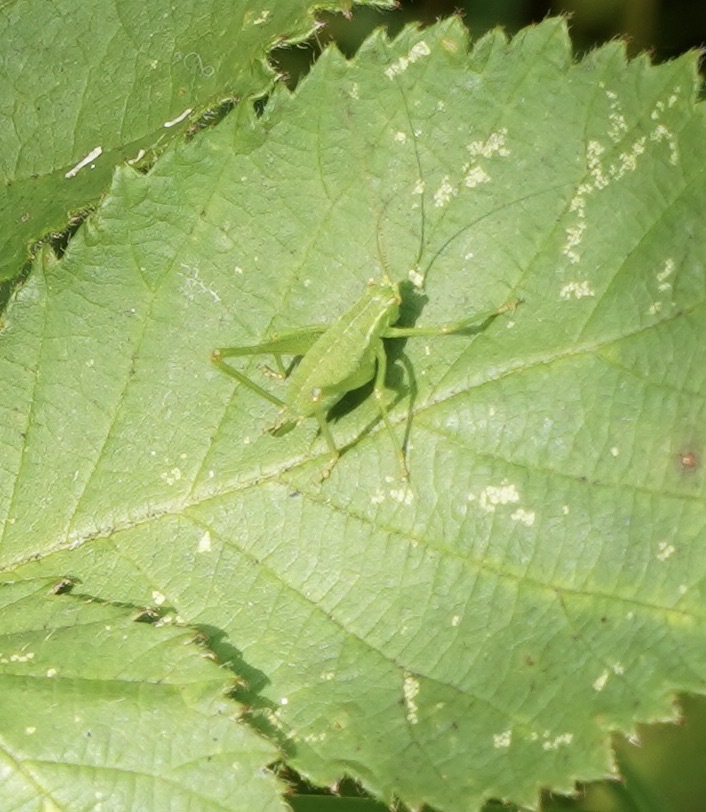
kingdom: Animalia
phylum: Arthropoda
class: Insecta
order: Orthoptera
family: Tettigoniidae
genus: Leptophyes
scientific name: Leptophyes punctatissima
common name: Speckled bush-cricket
